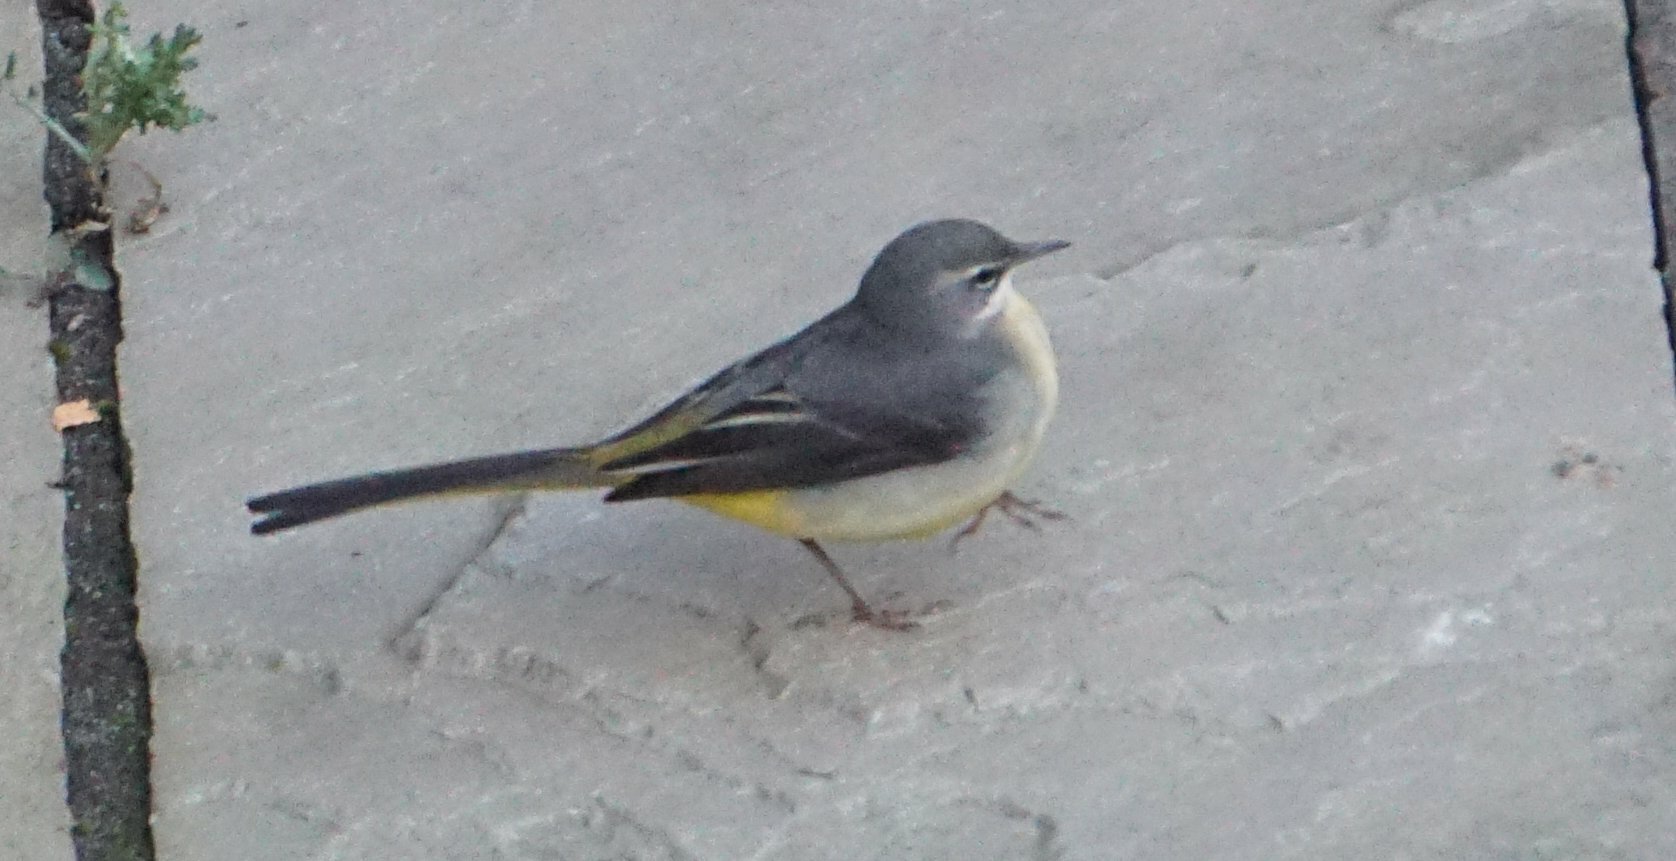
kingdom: Animalia
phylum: Chordata
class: Aves
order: Passeriformes
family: Motacillidae
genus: Motacilla
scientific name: Motacilla cinerea
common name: Grey wagtail
